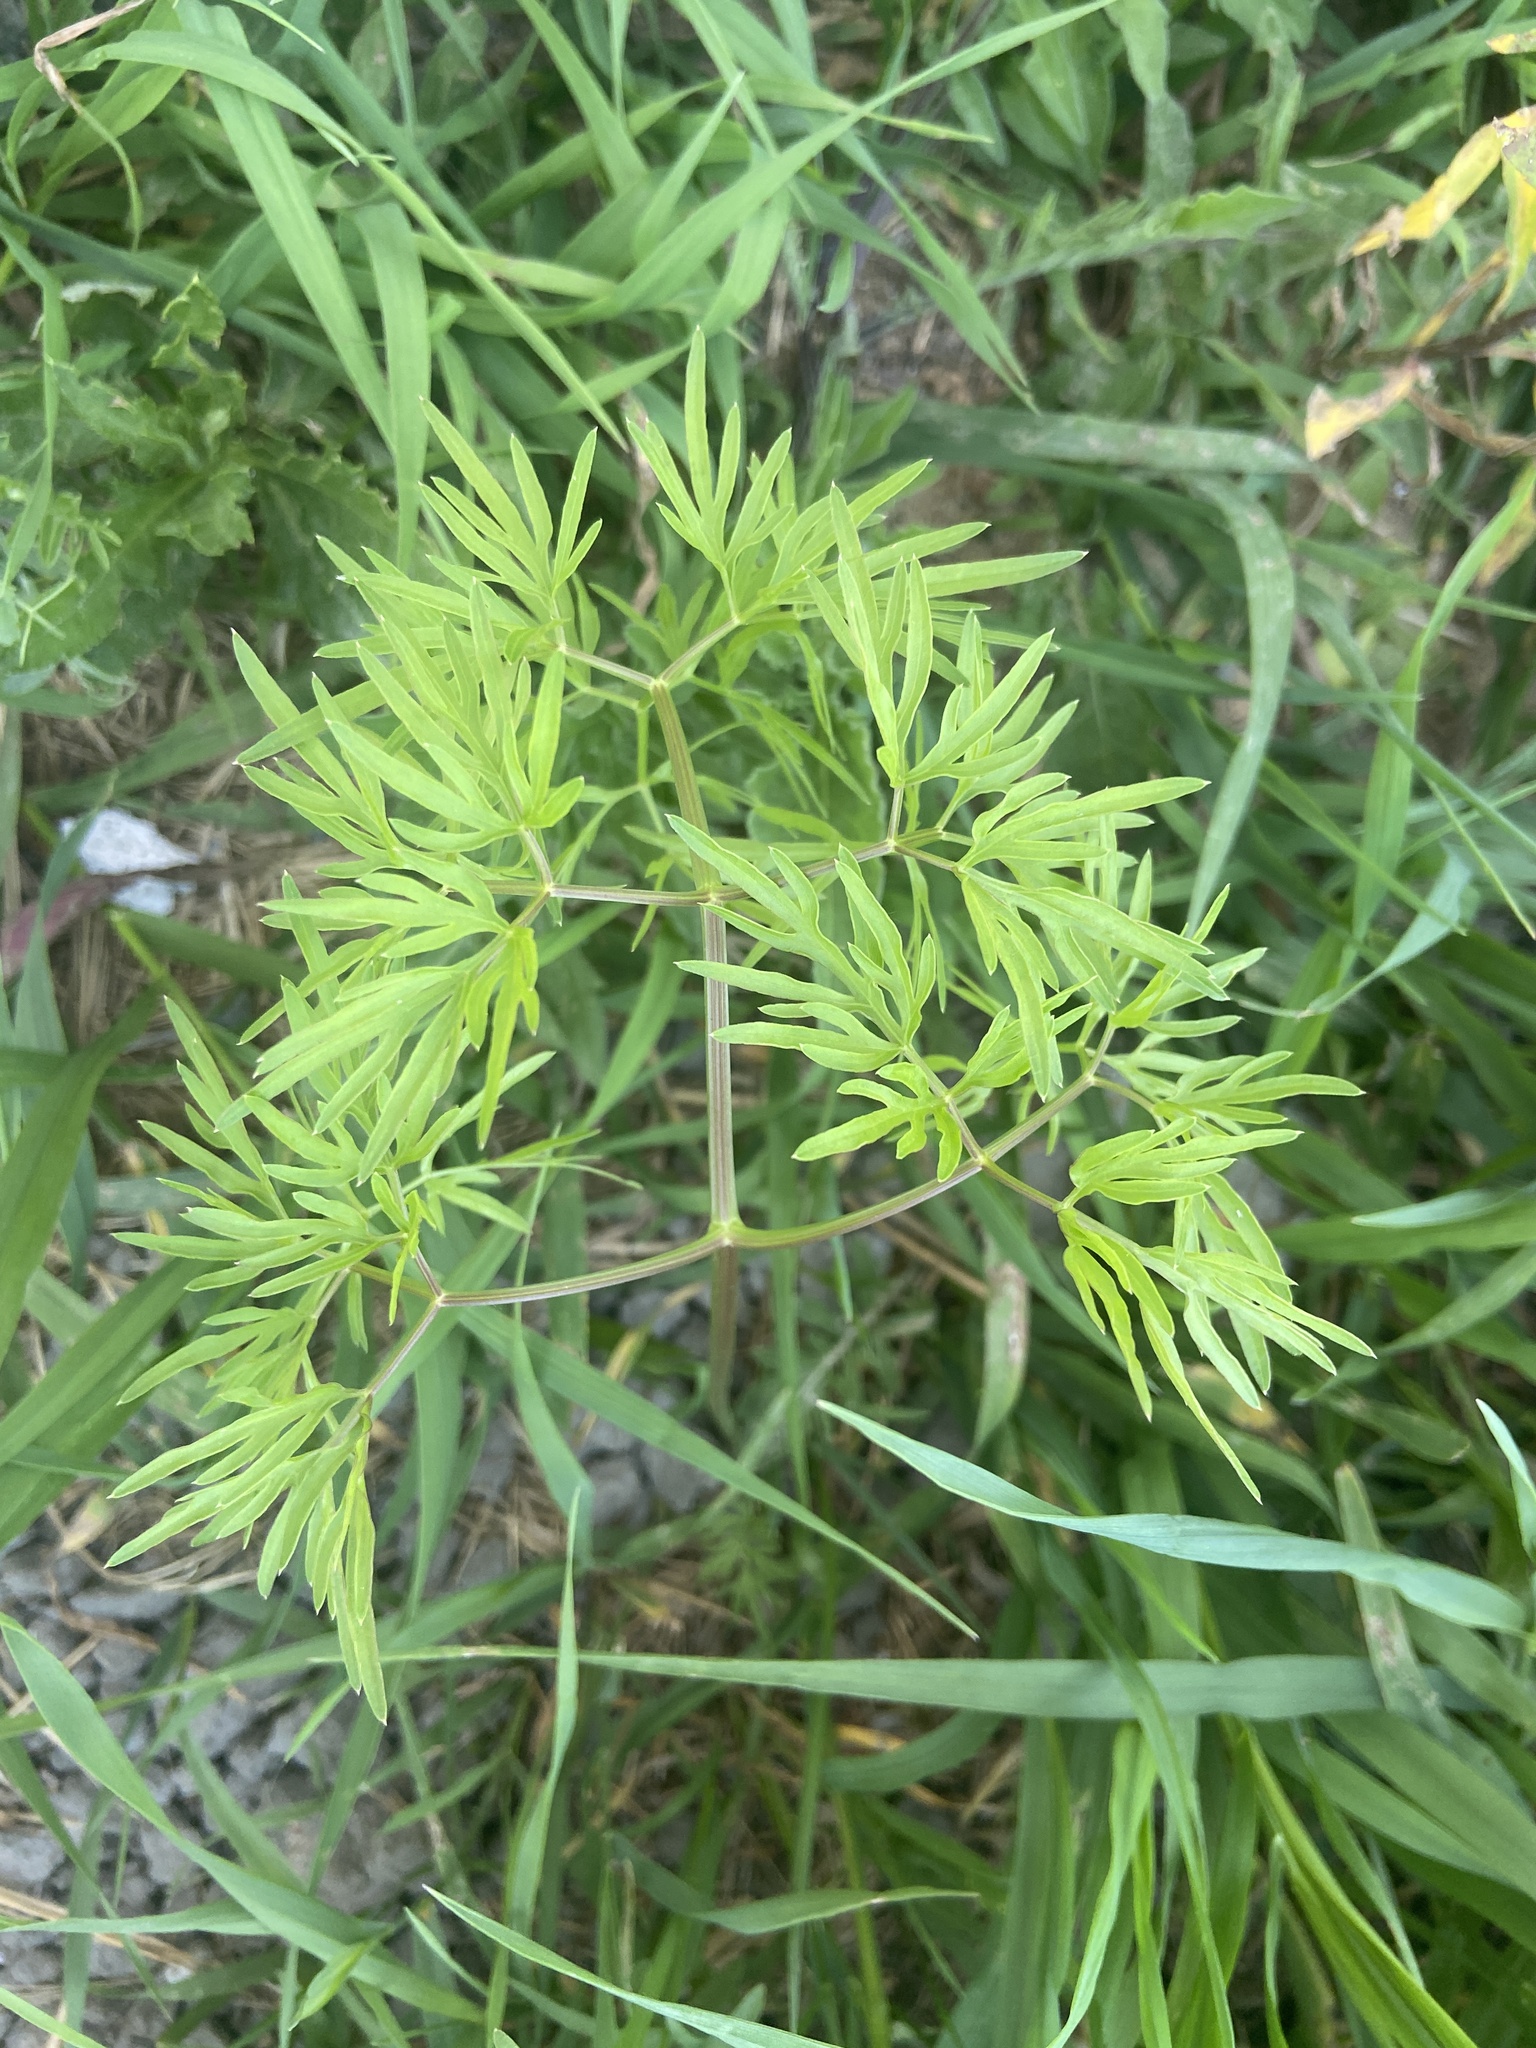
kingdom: Plantae
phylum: Tracheophyta
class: Magnoliopsida
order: Apiales
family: Apiaceae
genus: Cenolophium
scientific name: Cenolophium fischeri
